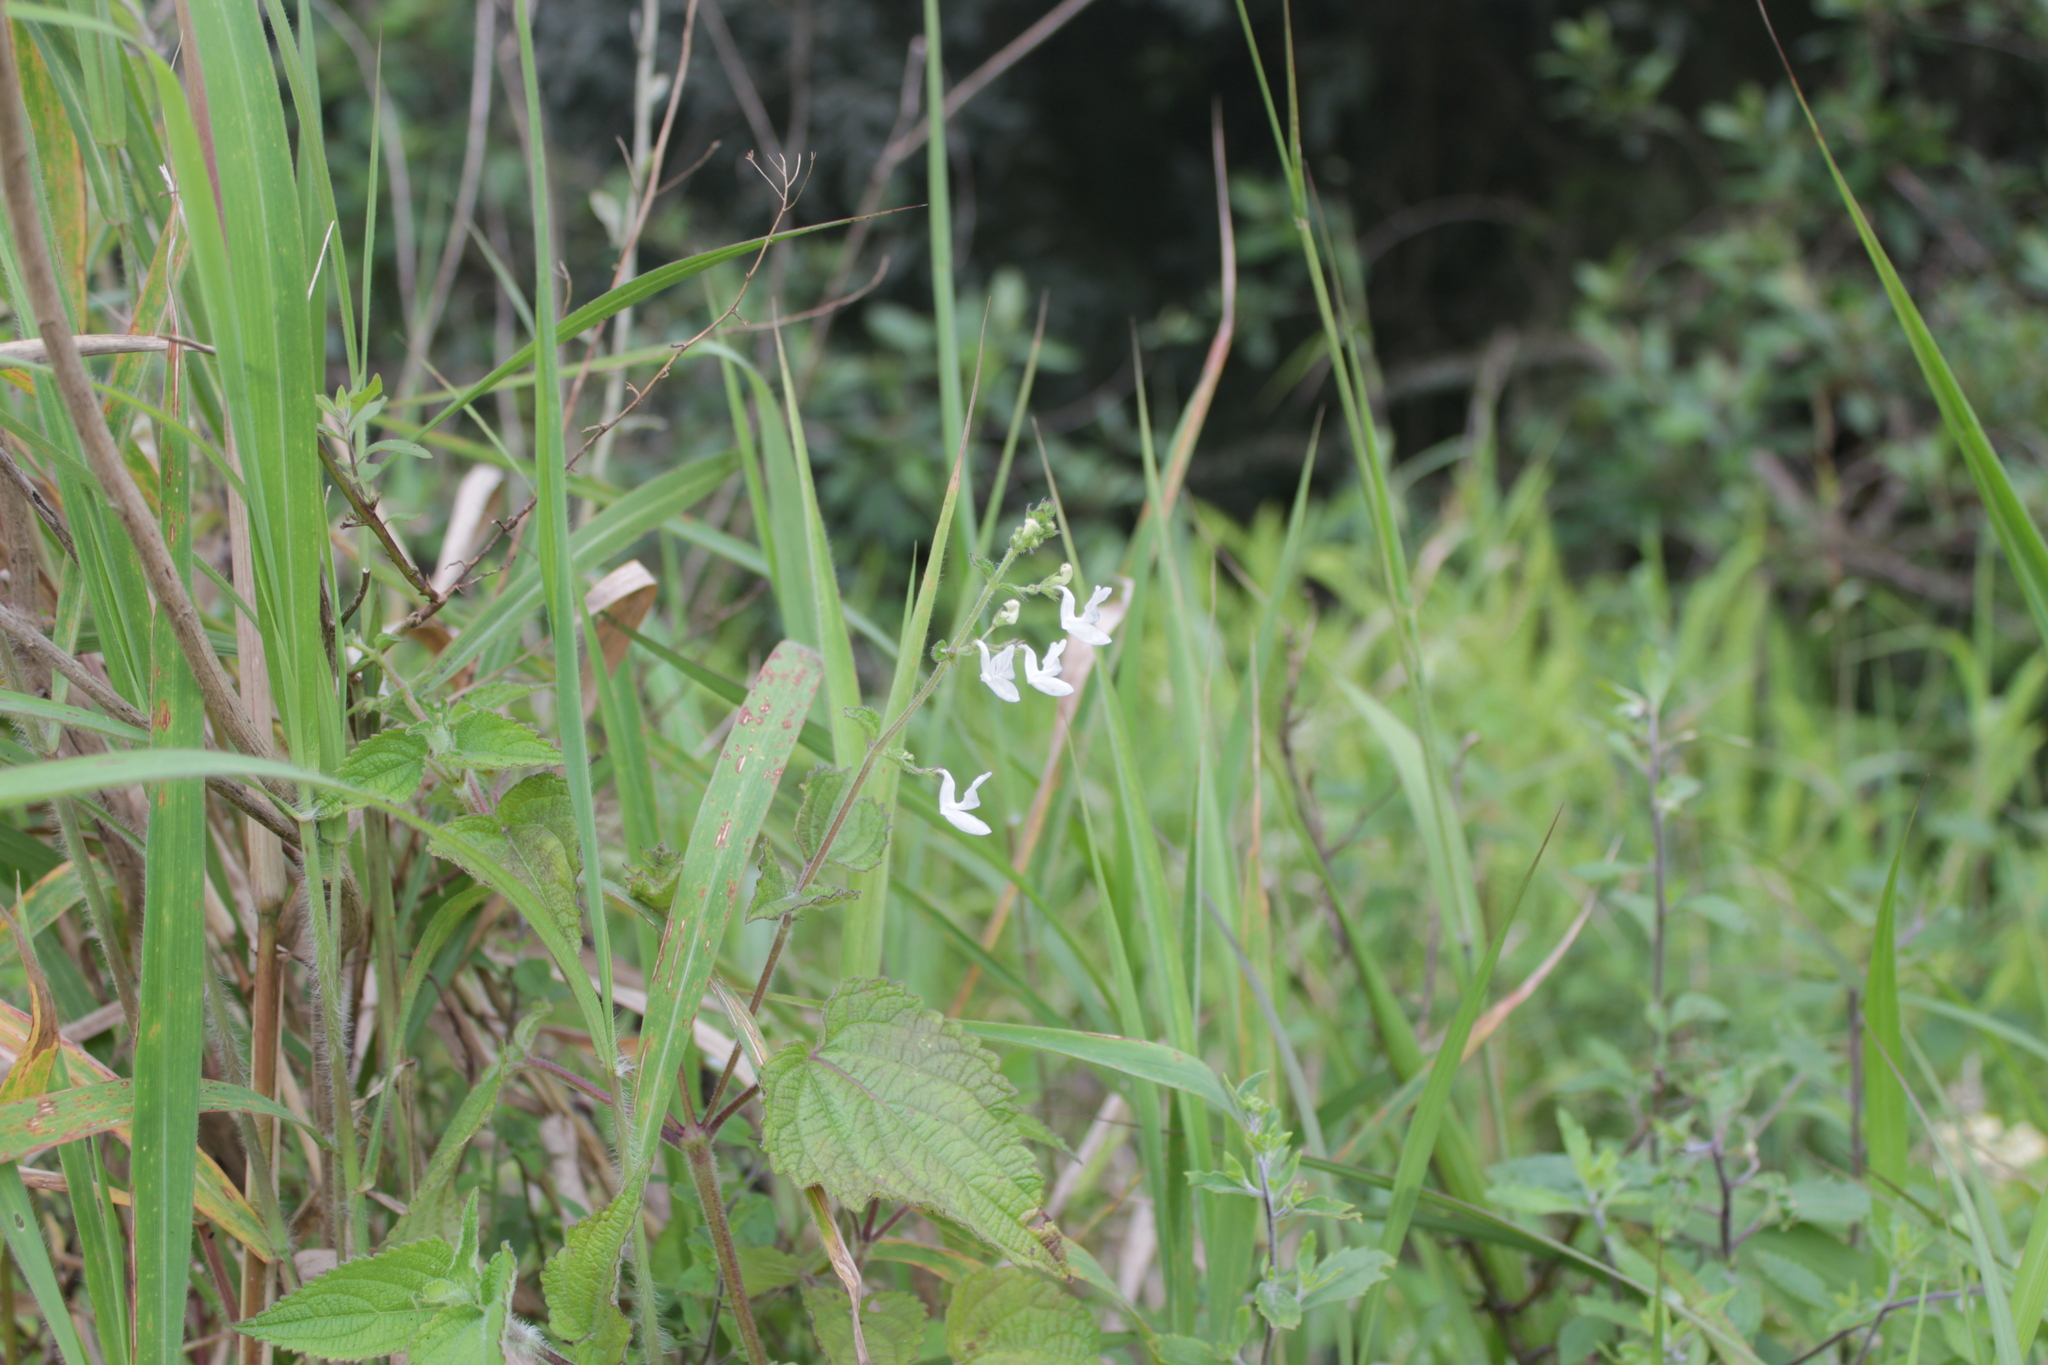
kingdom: Plantae
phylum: Tracheophyta
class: Magnoliopsida
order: Lamiales
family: Lamiaceae
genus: Equilabium
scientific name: Equilabium laxiflorum
